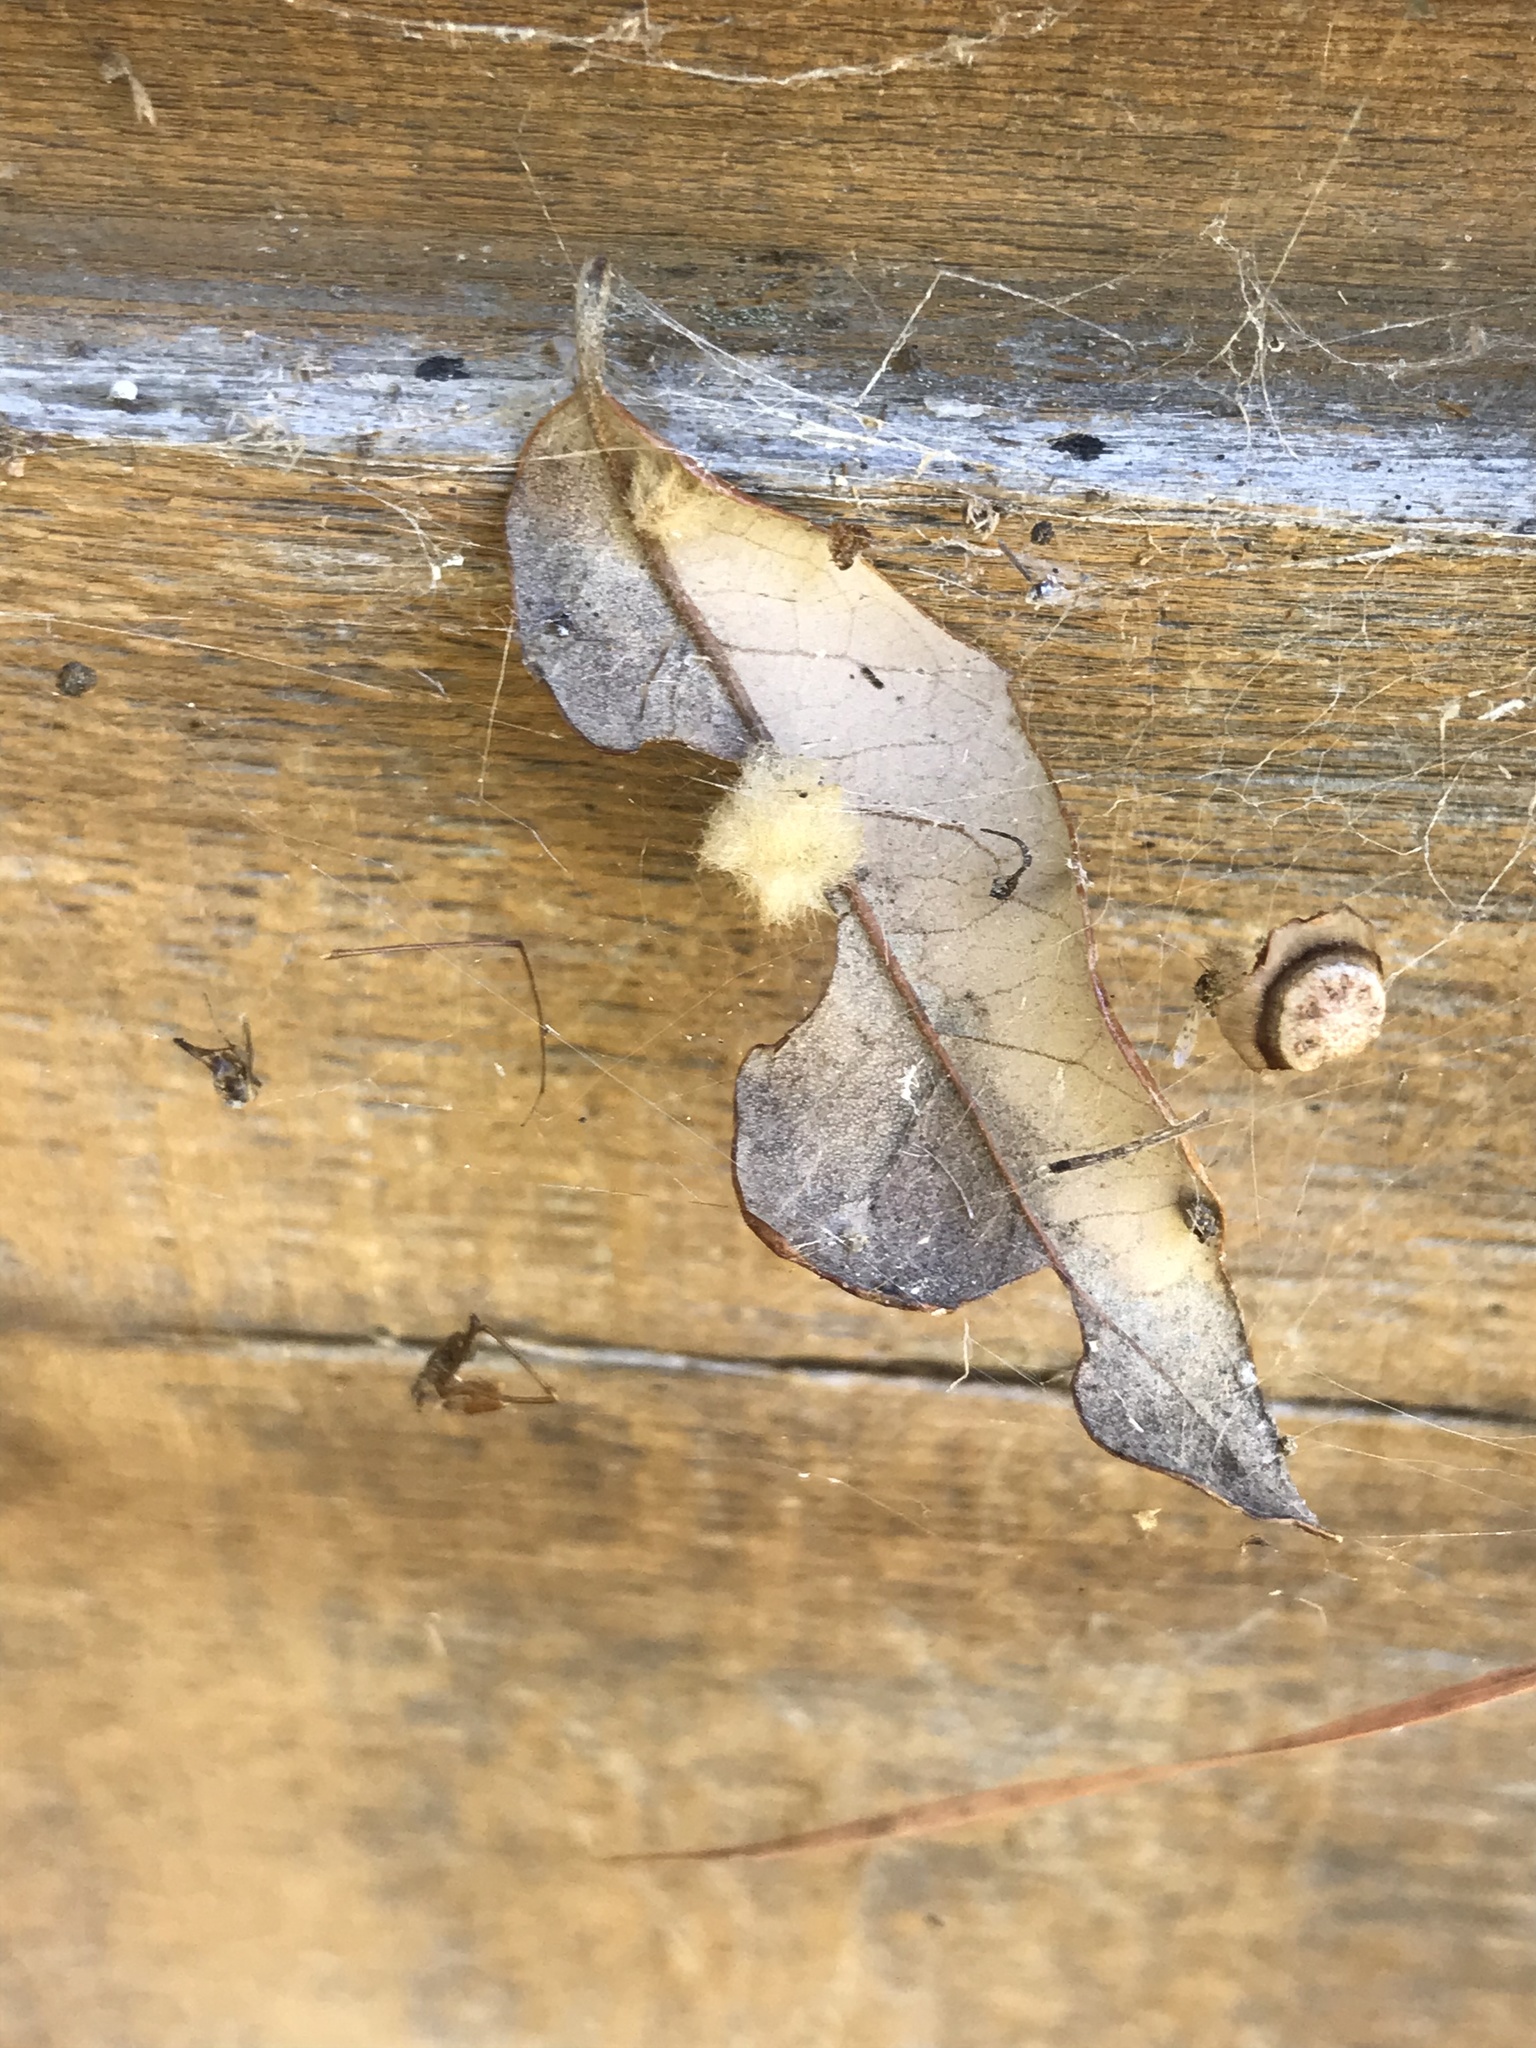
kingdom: Animalia
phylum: Arthropoda
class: Insecta
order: Hymenoptera
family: Cynipidae
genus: Andricus
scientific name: Andricus Druon quercuslanigerum
